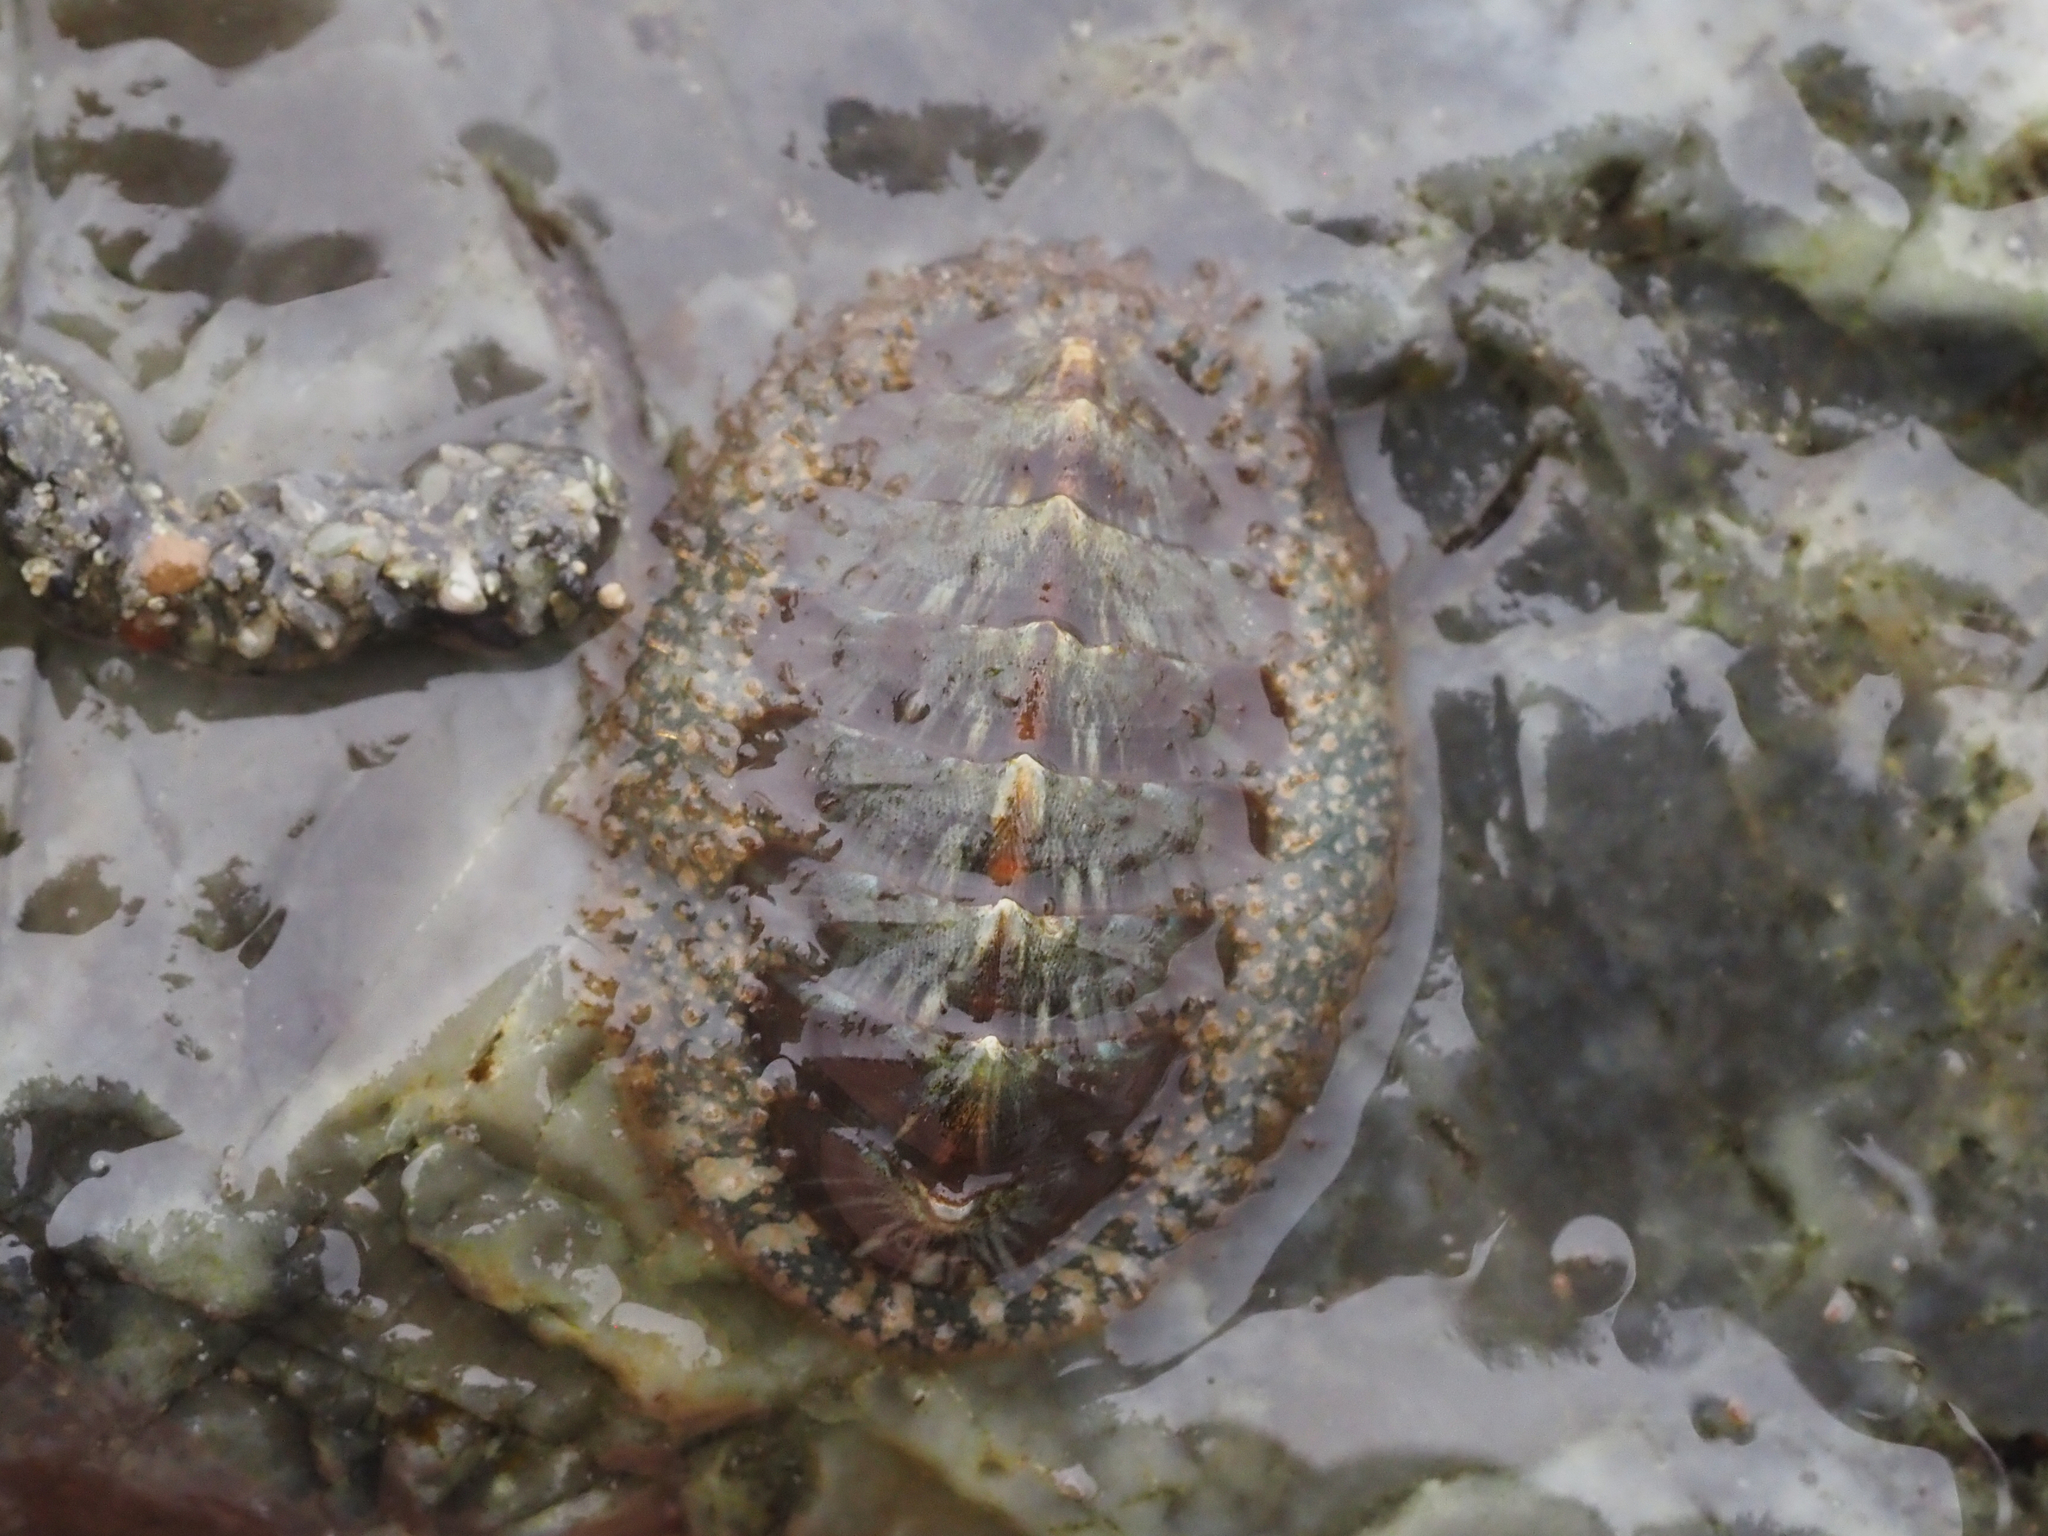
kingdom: Animalia
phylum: Mollusca
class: Polyplacophora
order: Chitonida
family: Mopaliidae
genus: Mopalia
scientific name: Mopalia lignosa
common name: Woody chiton
